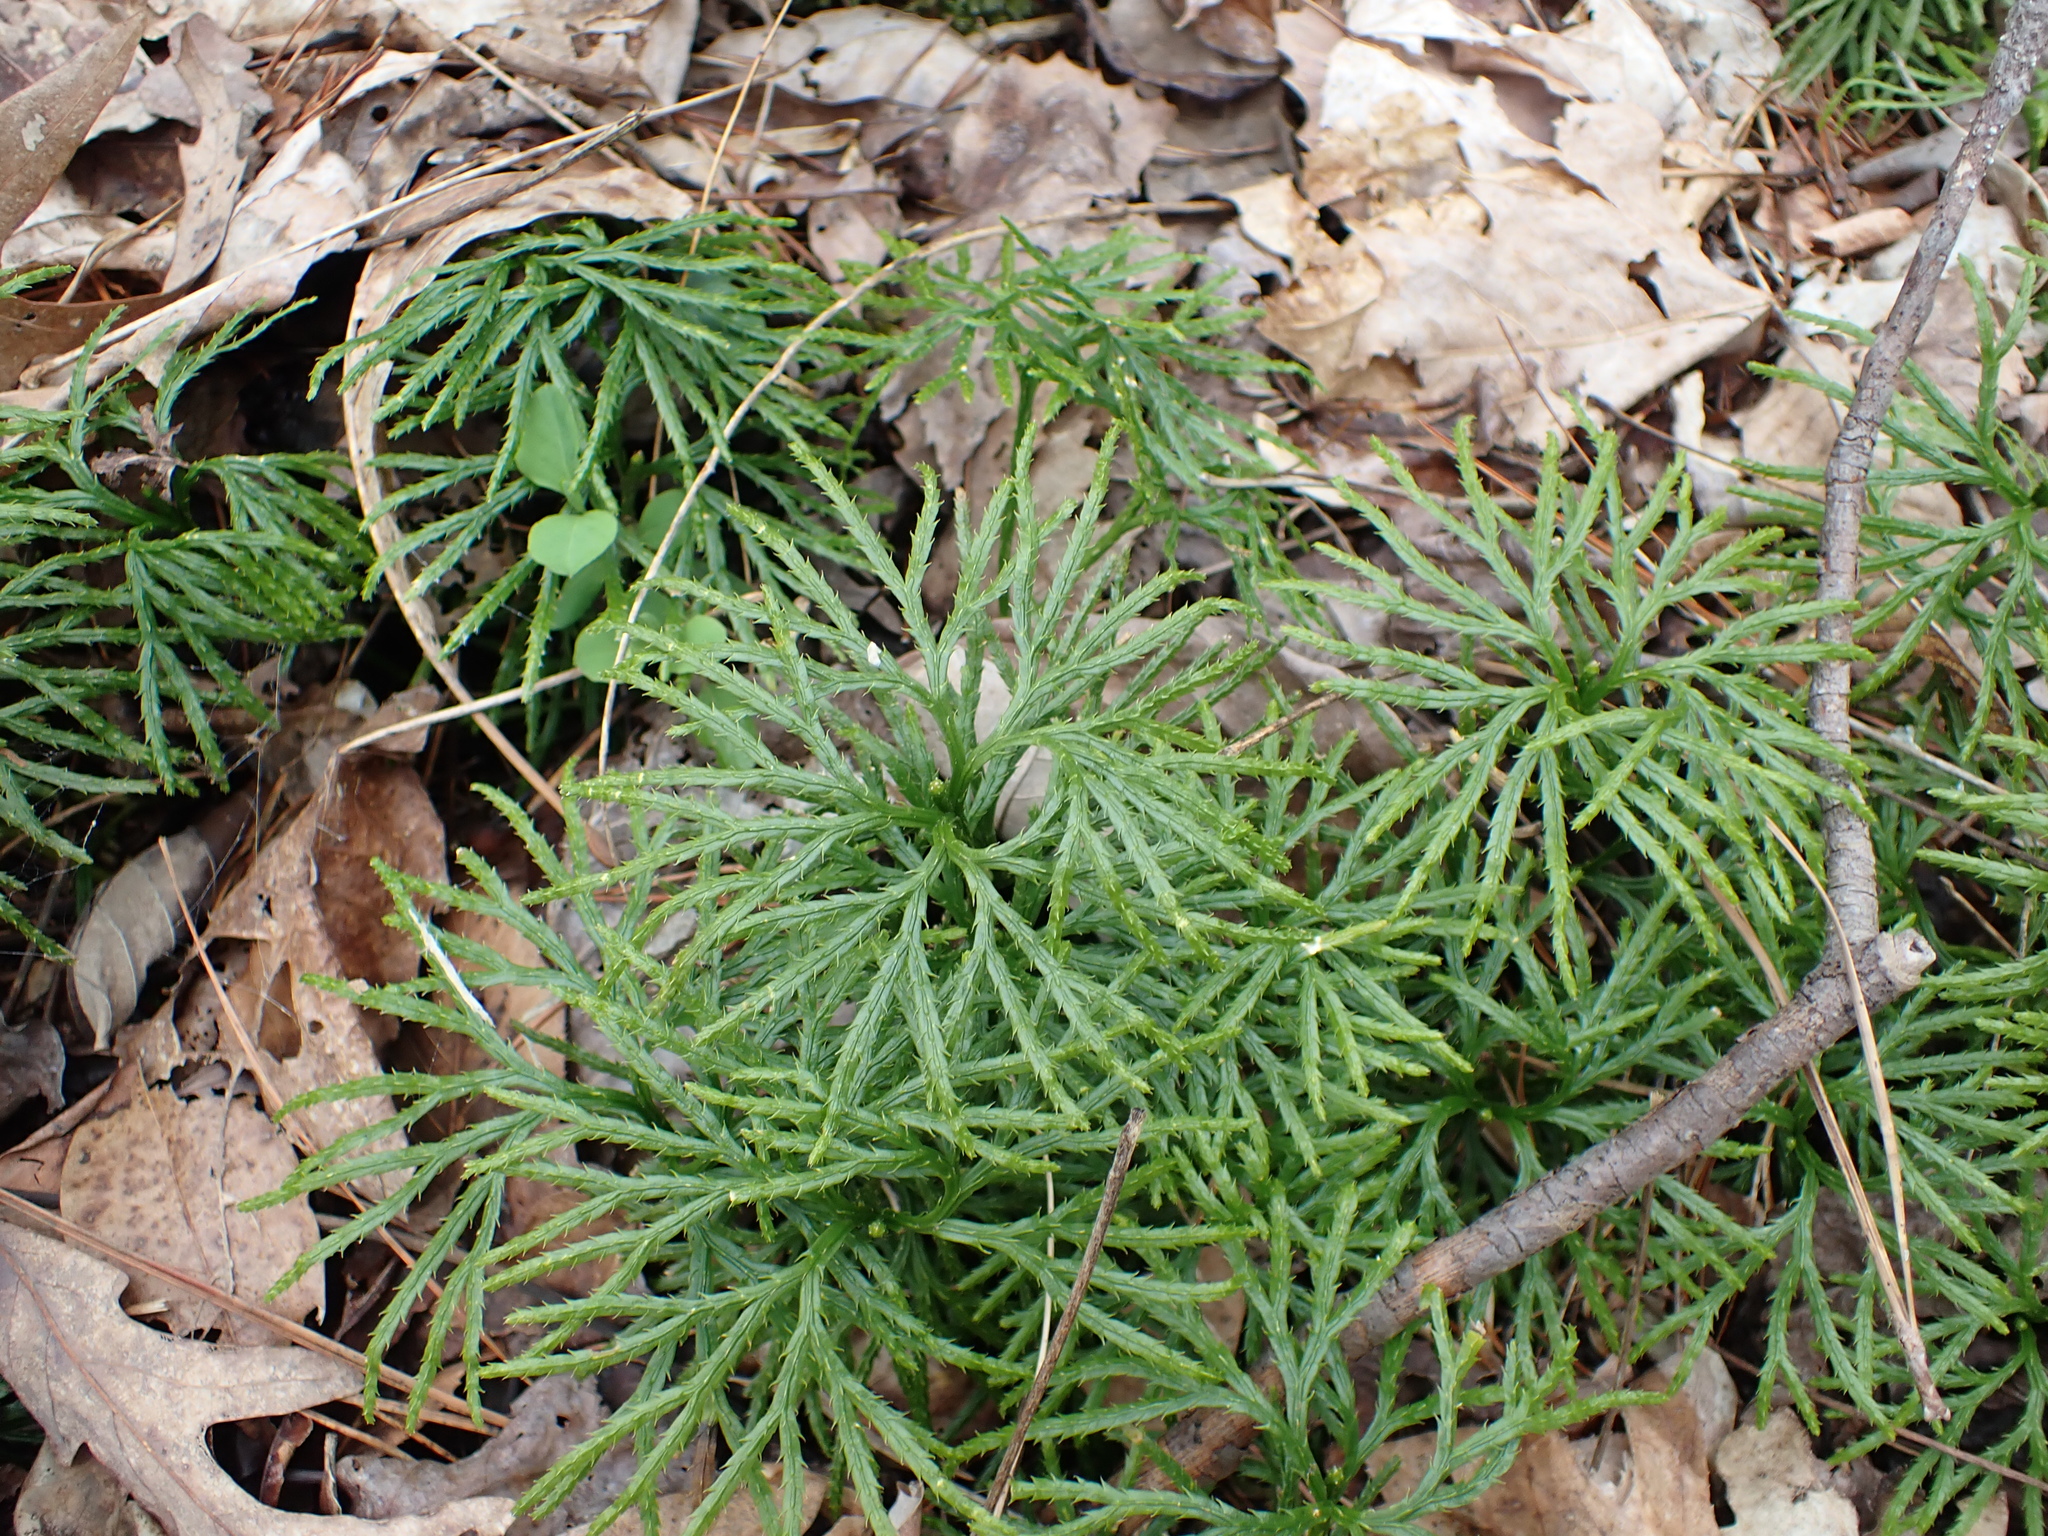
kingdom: Plantae
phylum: Tracheophyta
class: Lycopodiopsida
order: Lycopodiales
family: Lycopodiaceae
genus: Diphasiastrum
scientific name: Diphasiastrum digitatum
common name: Southern running-pine
